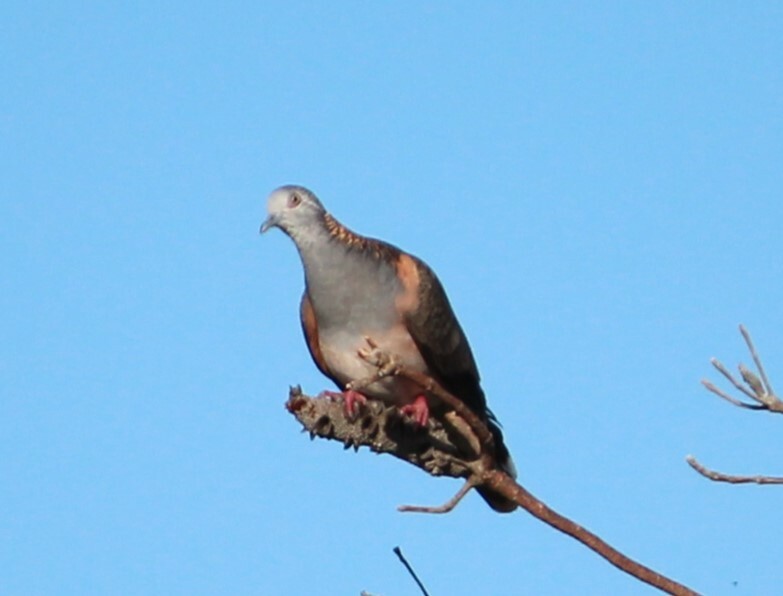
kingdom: Animalia
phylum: Chordata
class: Aves
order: Columbiformes
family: Columbidae
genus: Geopelia
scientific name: Geopelia humeralis
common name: Bar-shouldered dove
